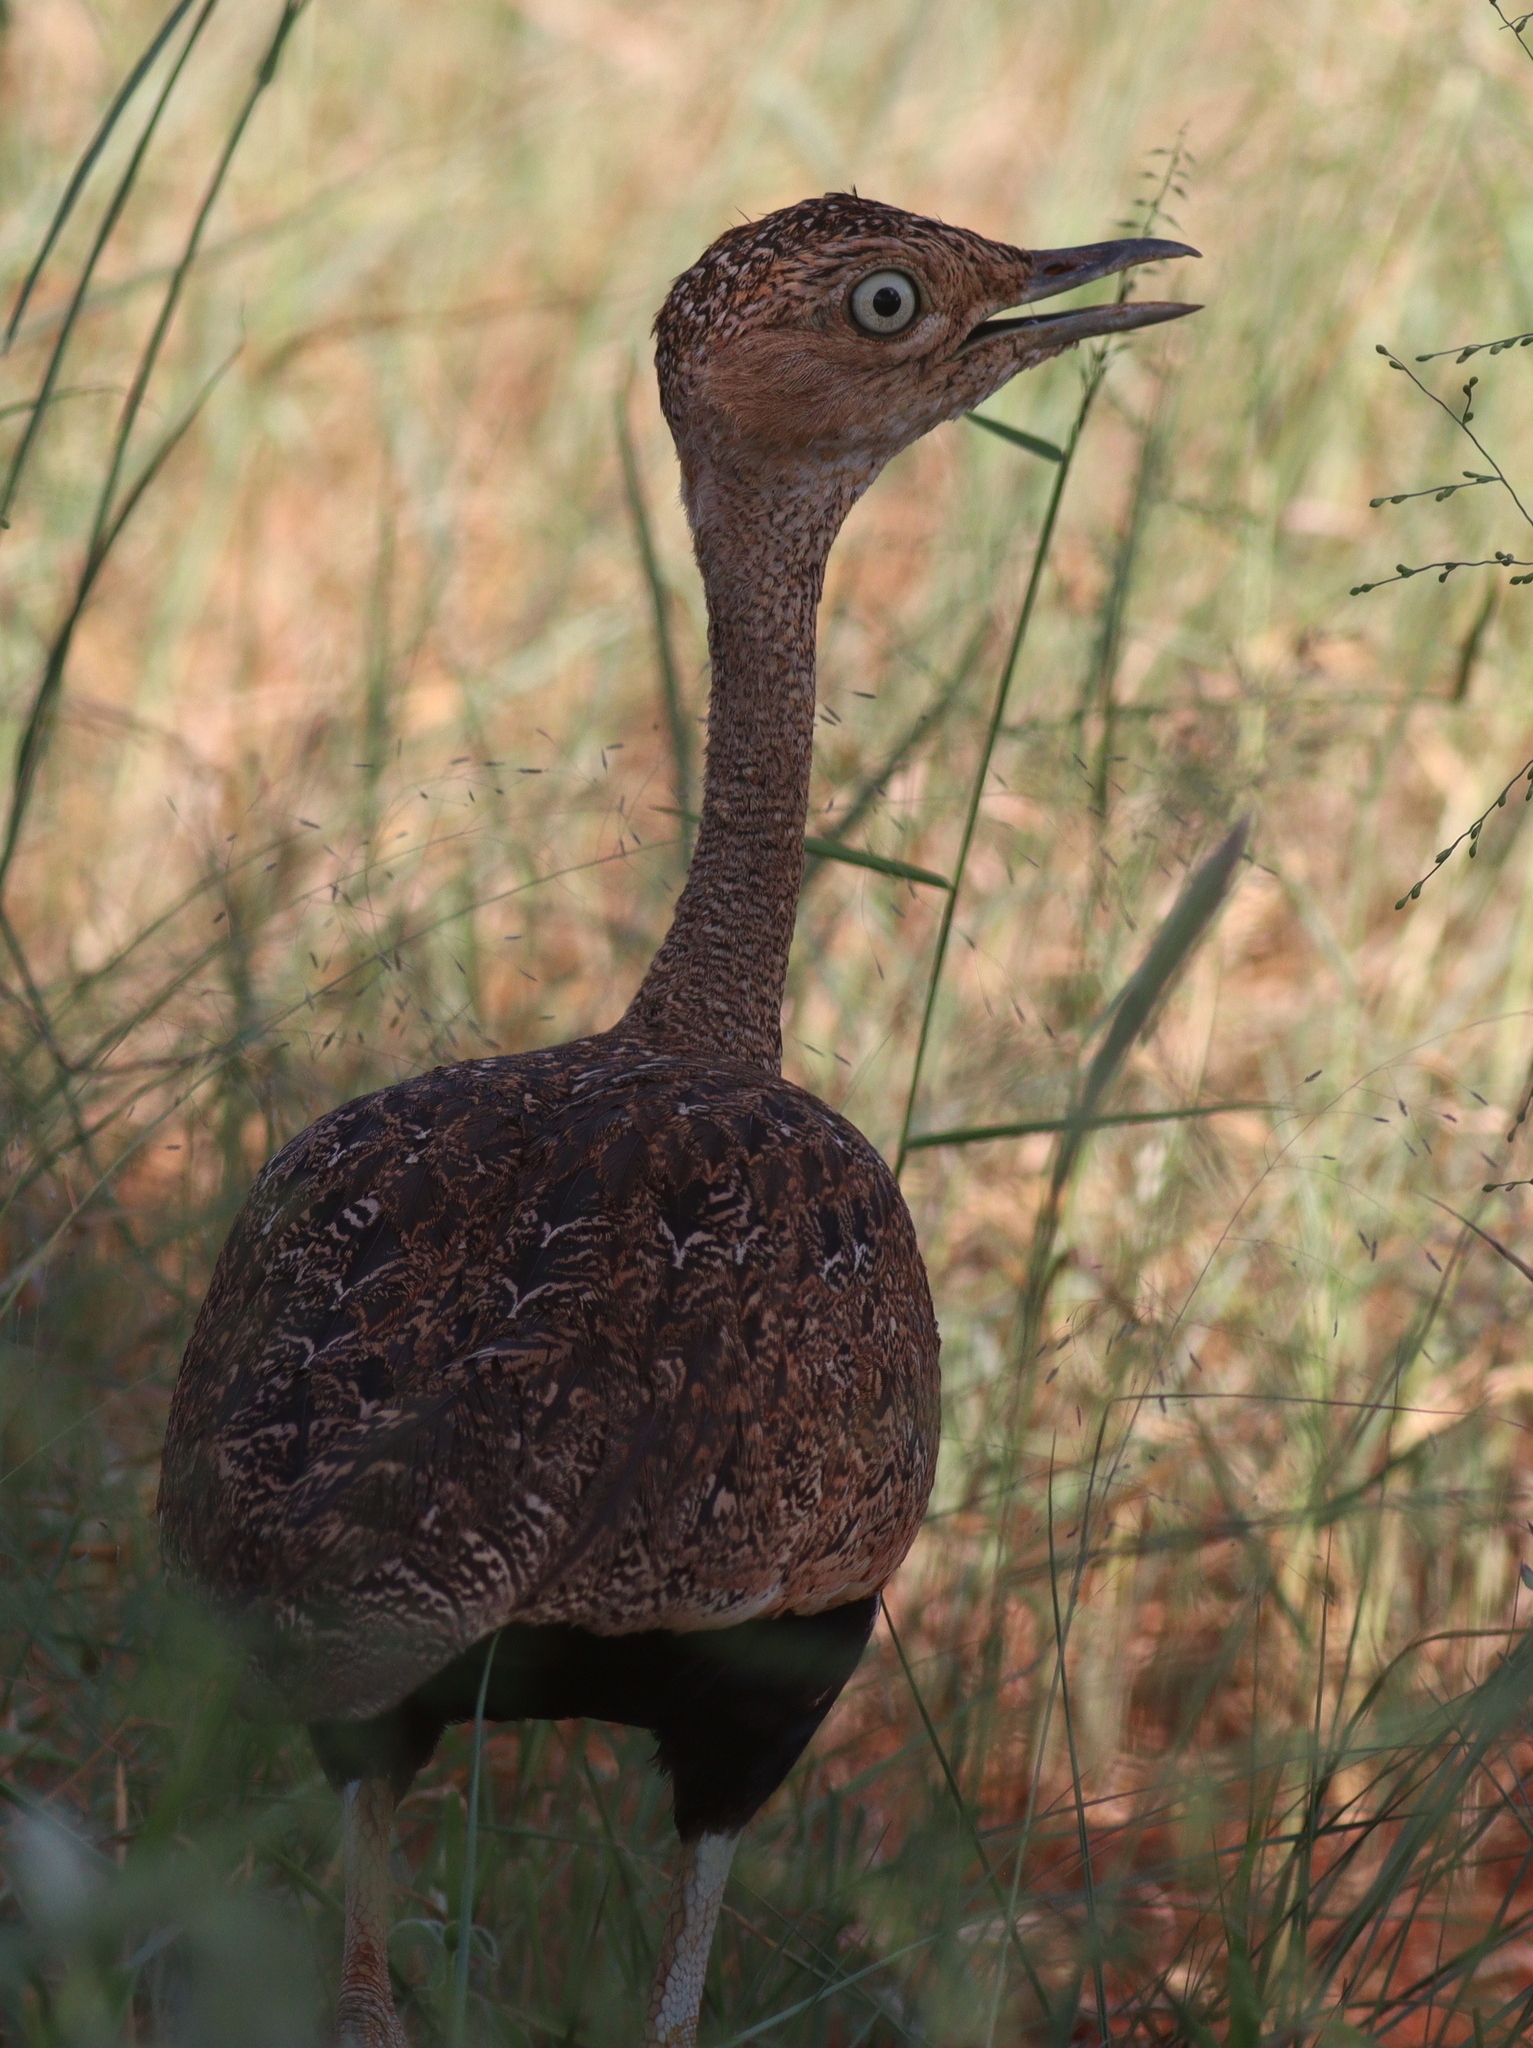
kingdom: Animalia
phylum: Chordata
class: Aves
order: Otidiformes
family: Otididae
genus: Lophotis
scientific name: Lophotis gindiana
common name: Buff-crested bustard
